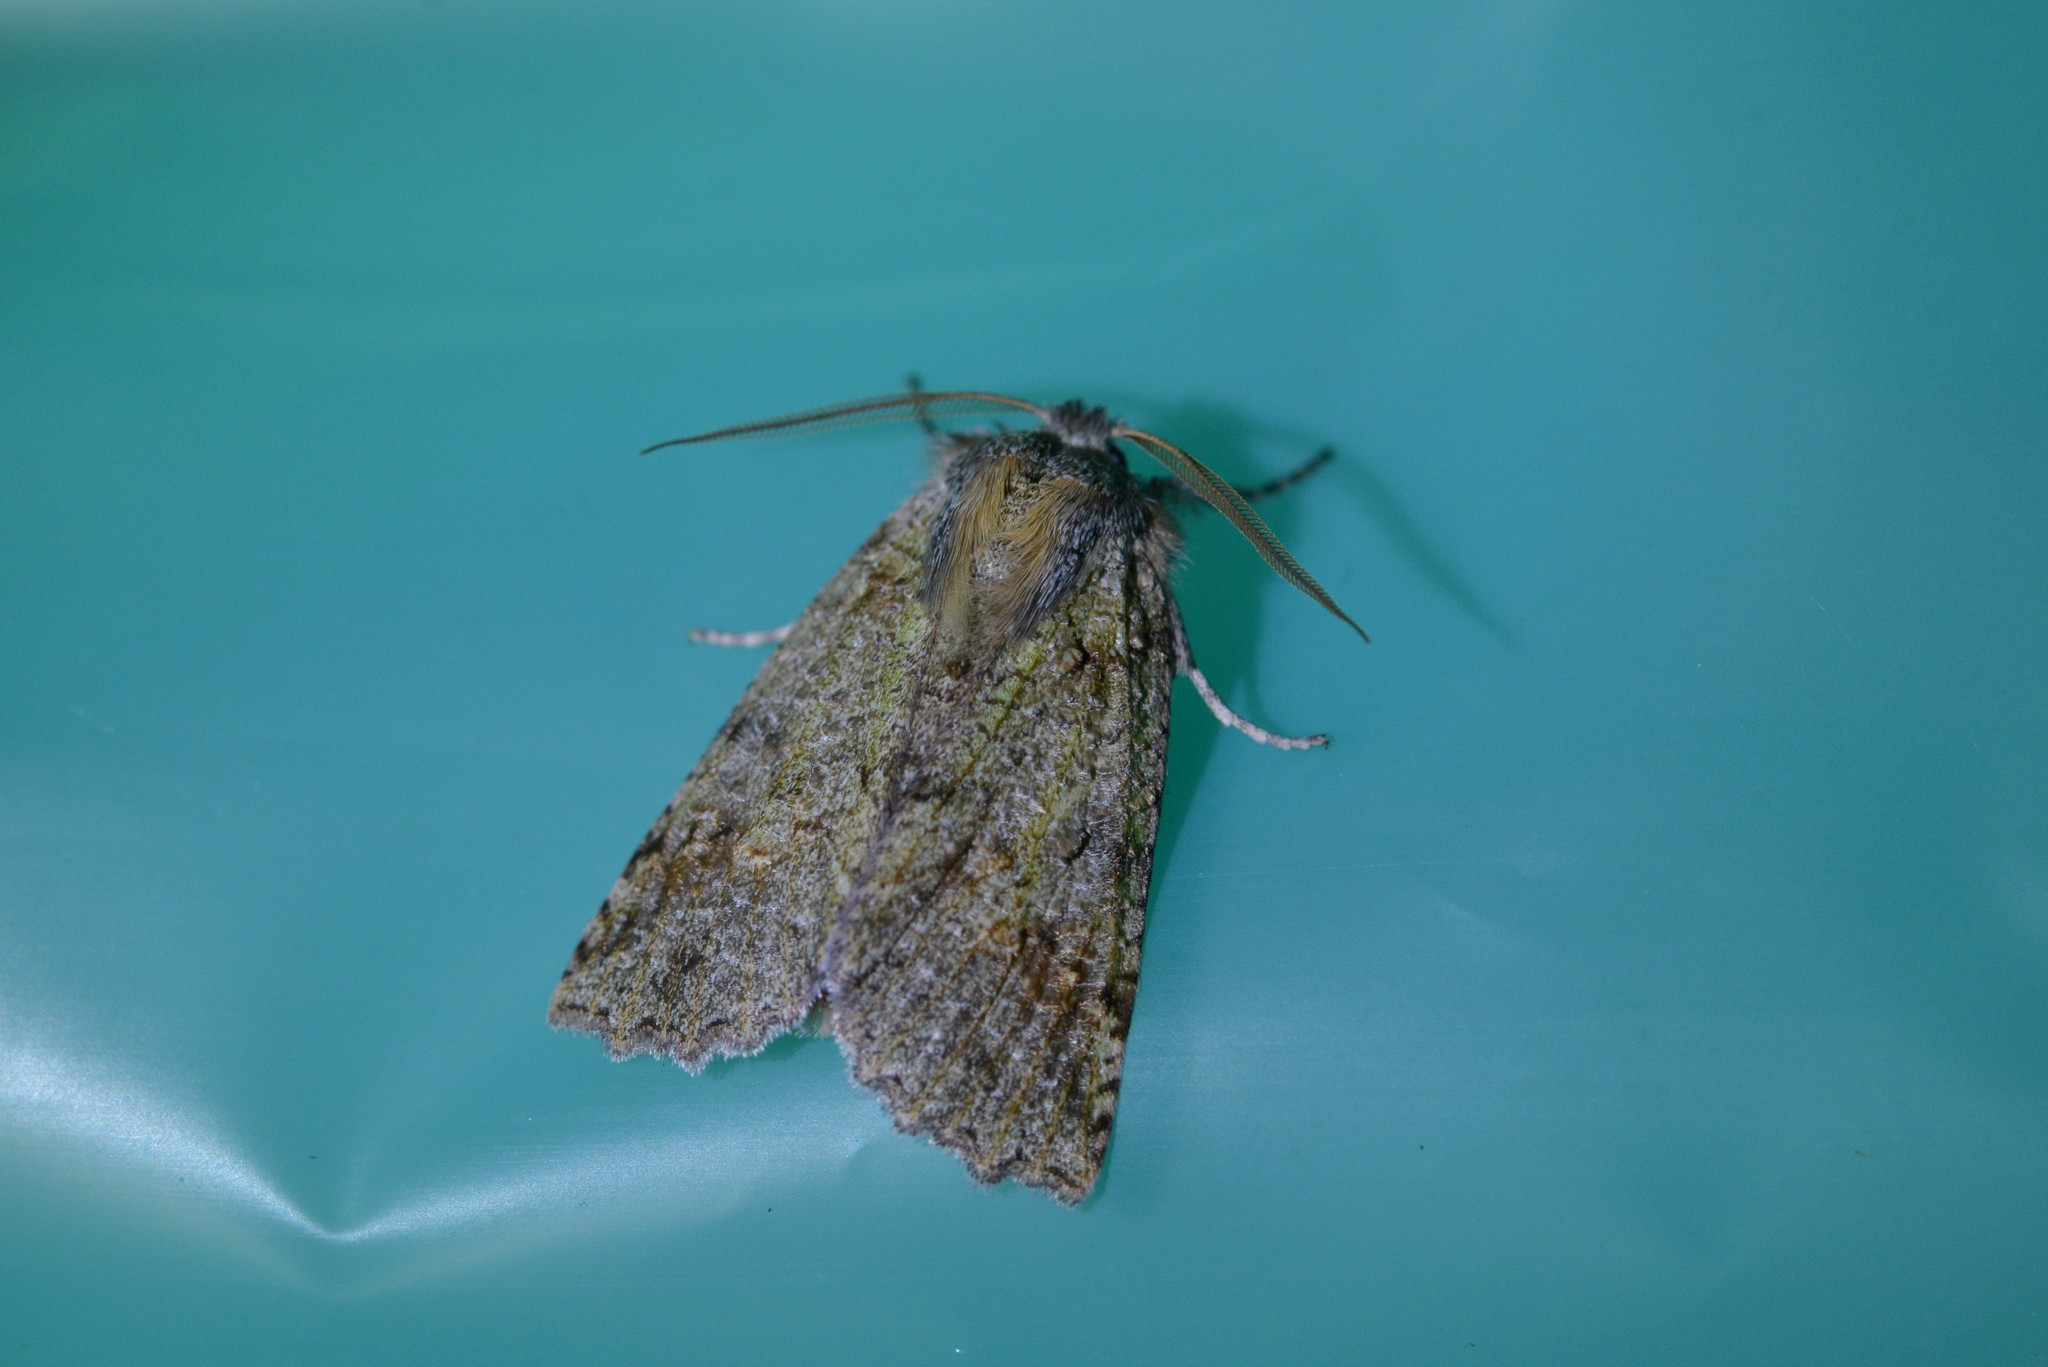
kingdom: Animalia
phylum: Arthropoda
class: Insecta
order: Lepidoptera
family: Geometridae
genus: Declana
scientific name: Declana floccosa
